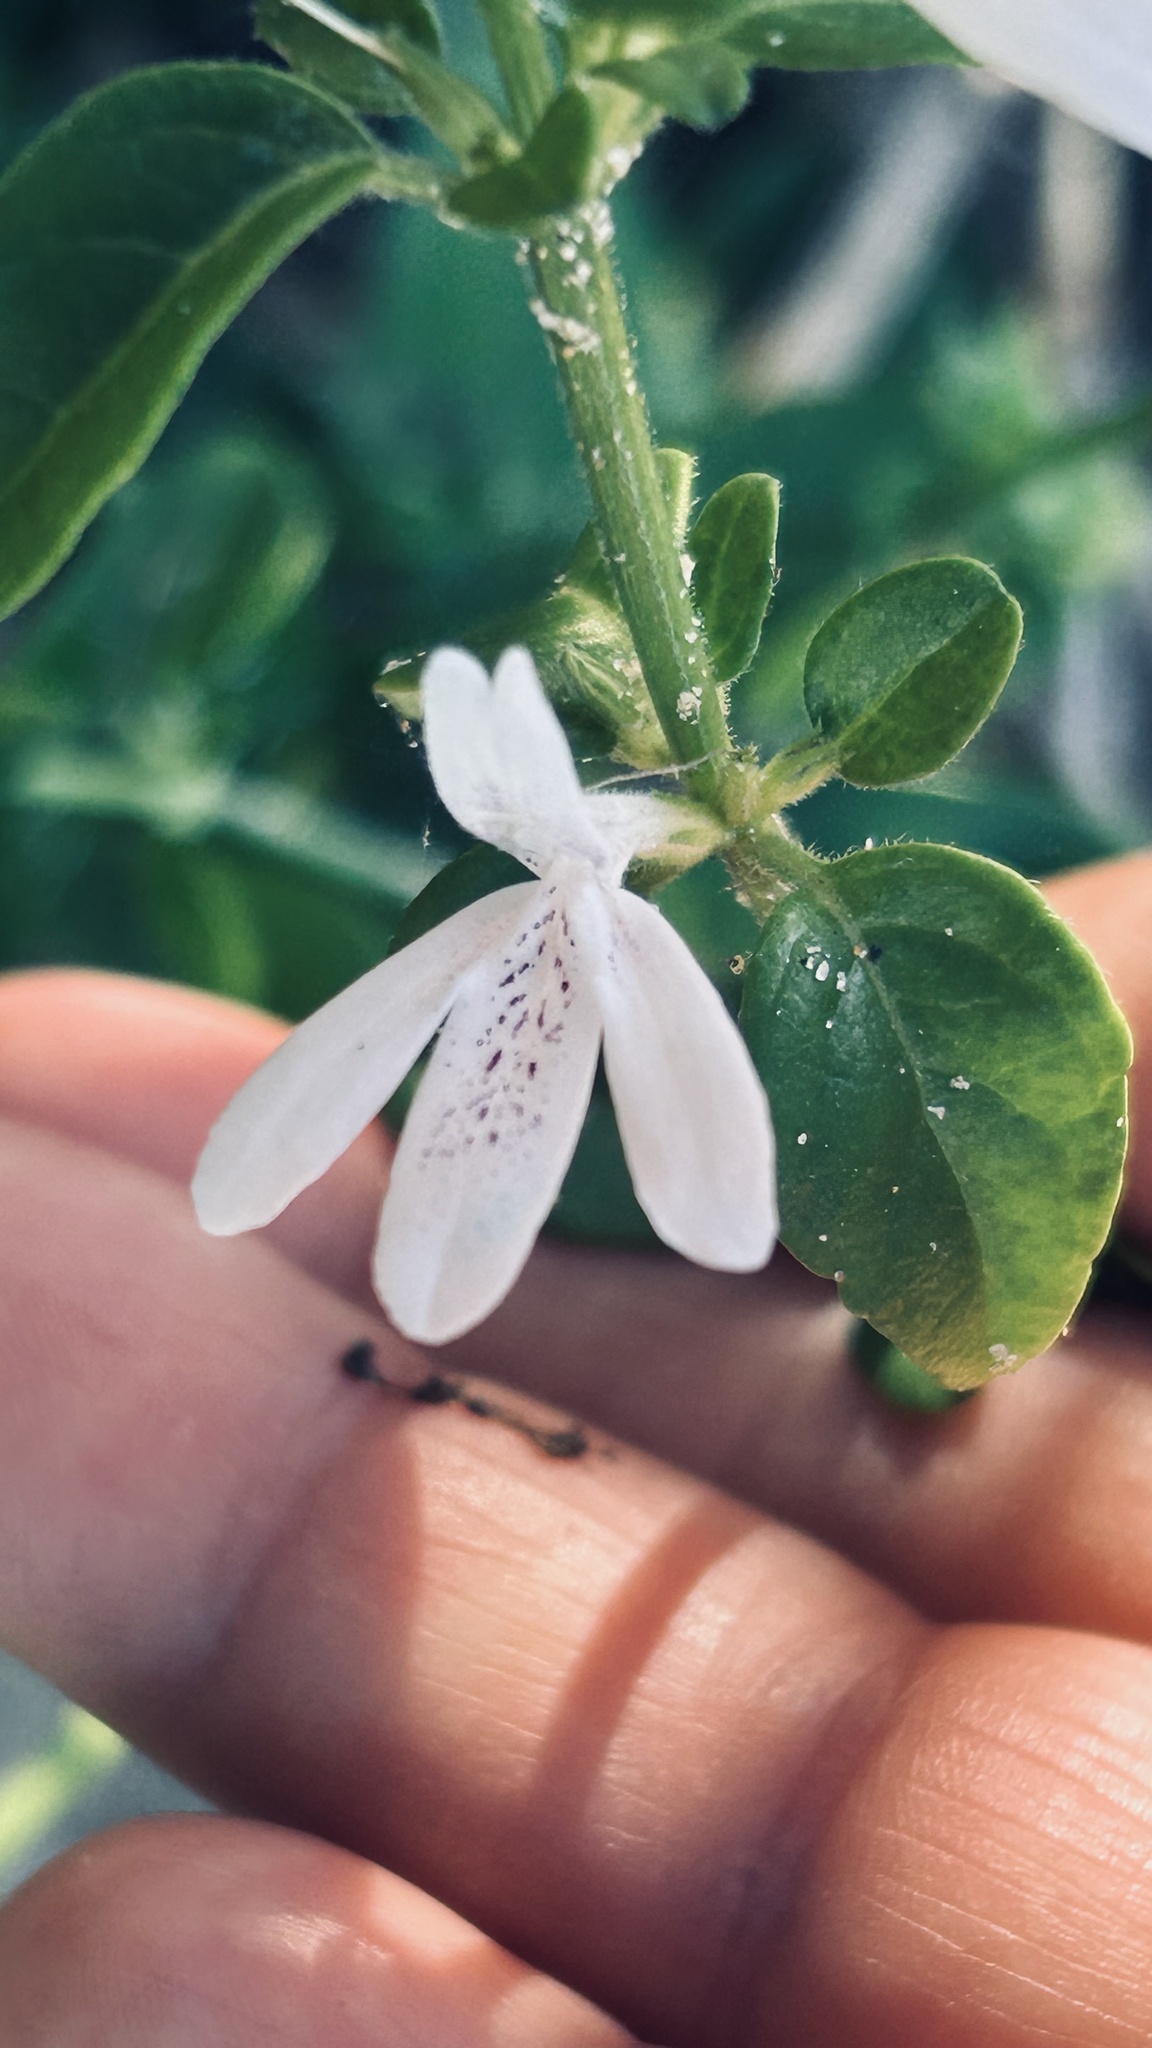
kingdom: Plantae
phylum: Tracheophyta
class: Magnoliopsida
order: Lamiales
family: Acanthaceae
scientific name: Acanthaceae
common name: Acanthaceae
